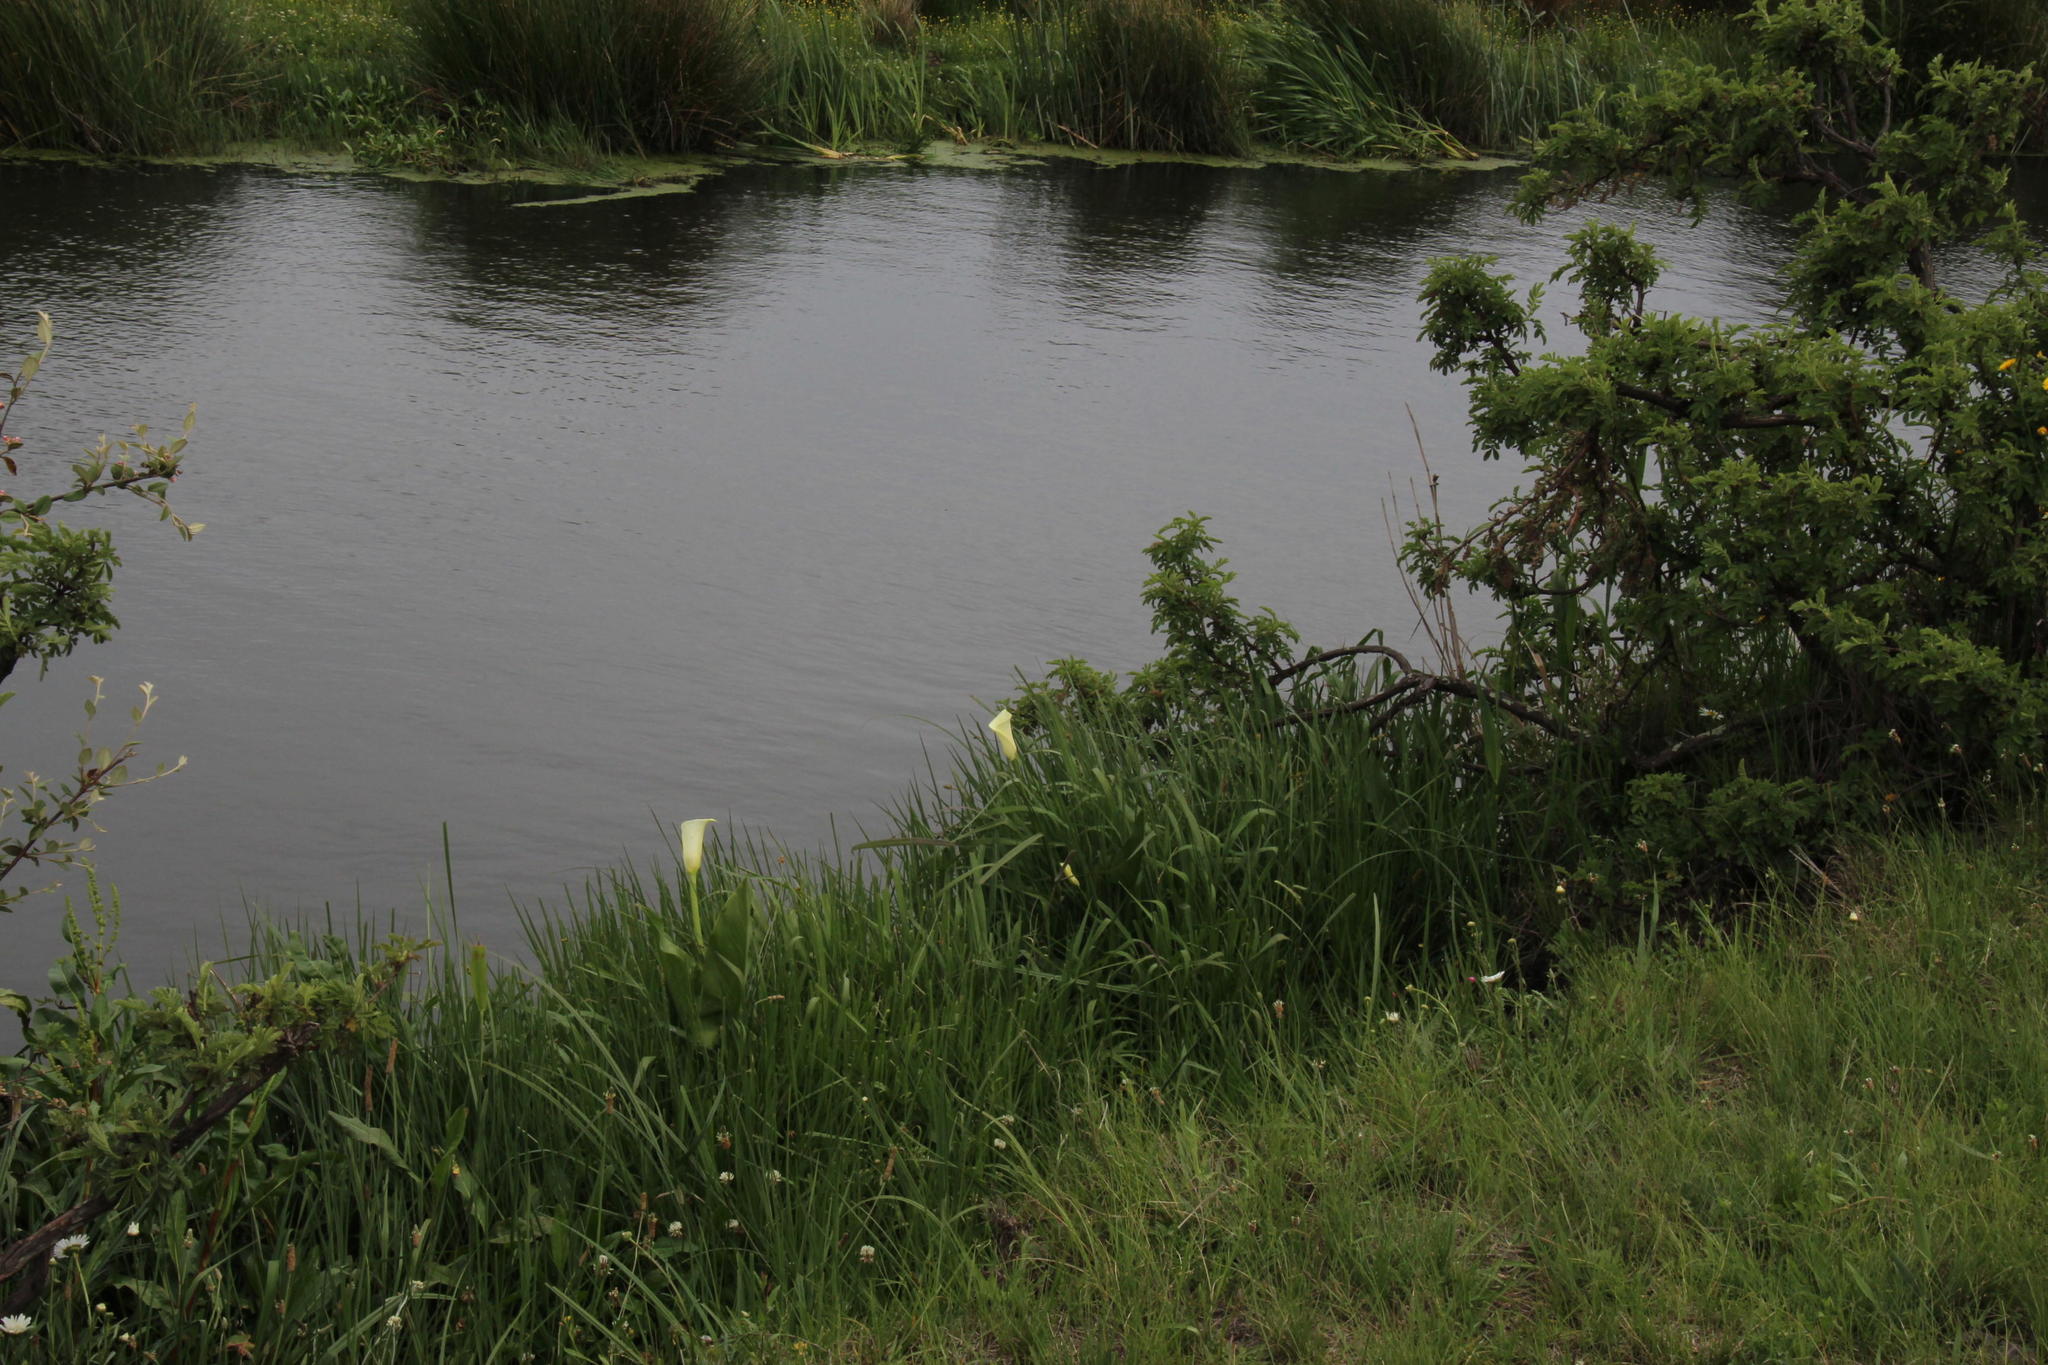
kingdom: Plantae
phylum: Tracheophyta
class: Liliopsida
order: Alismatales
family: Araceae
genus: Zantedeschia
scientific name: Zantedeschia aethiopica
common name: Altar-lily
